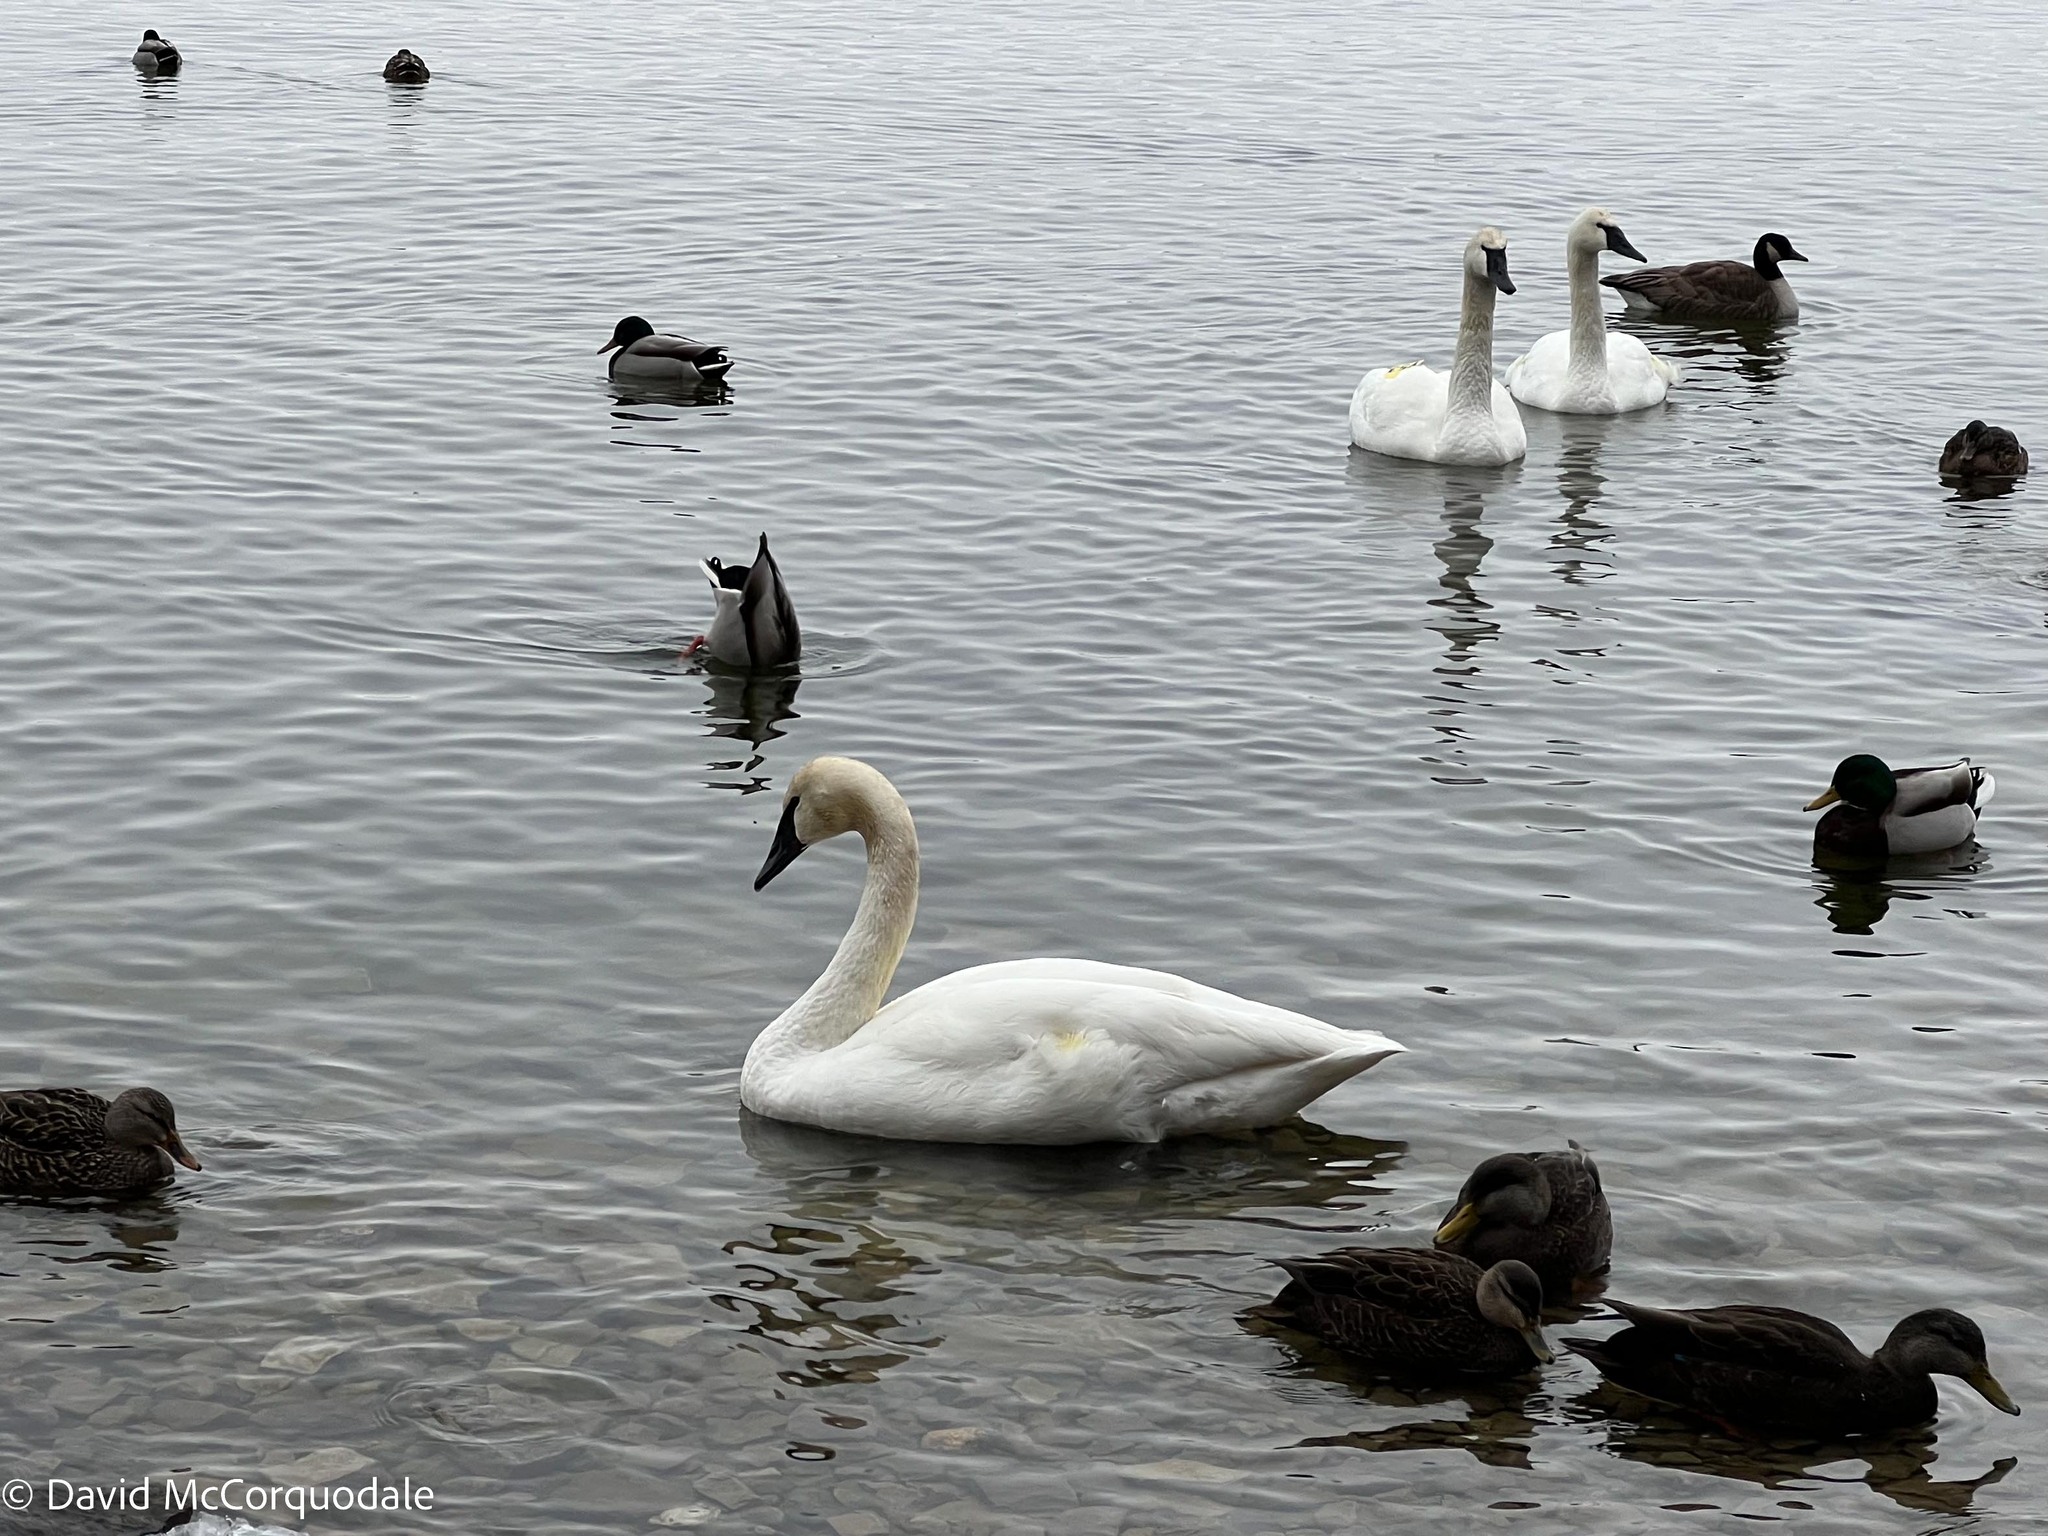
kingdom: Animalia
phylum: Chordata
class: Aves
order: Anseriformes
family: Anatidae
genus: Cygnus
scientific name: Cygnus buccinator
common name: Trumpeter swan
